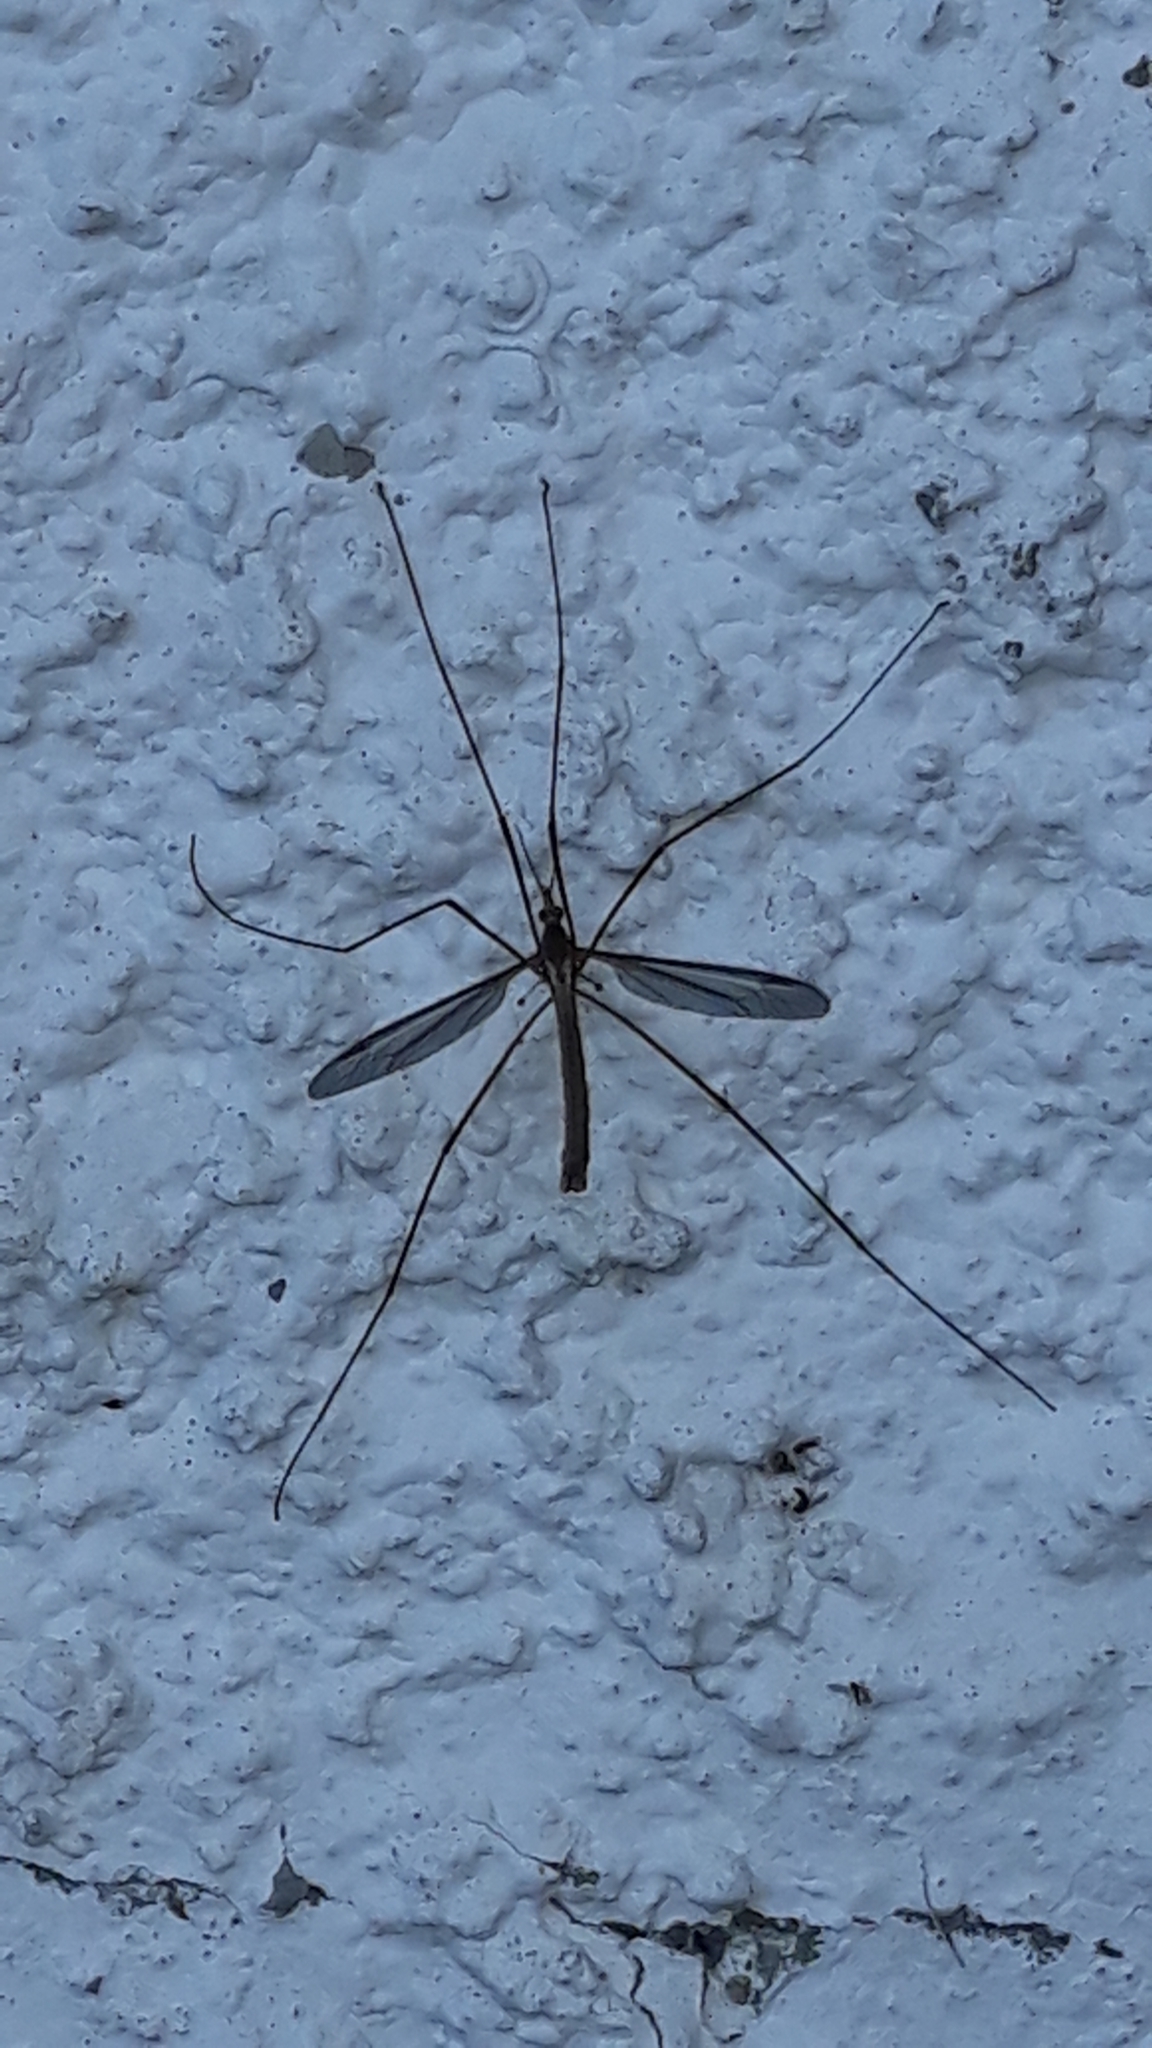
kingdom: Animalia
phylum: Arthropoda
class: Insecta
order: Diptera
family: Tipulidae
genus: Tipula
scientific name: Tipula paludosa
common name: European cranefly
